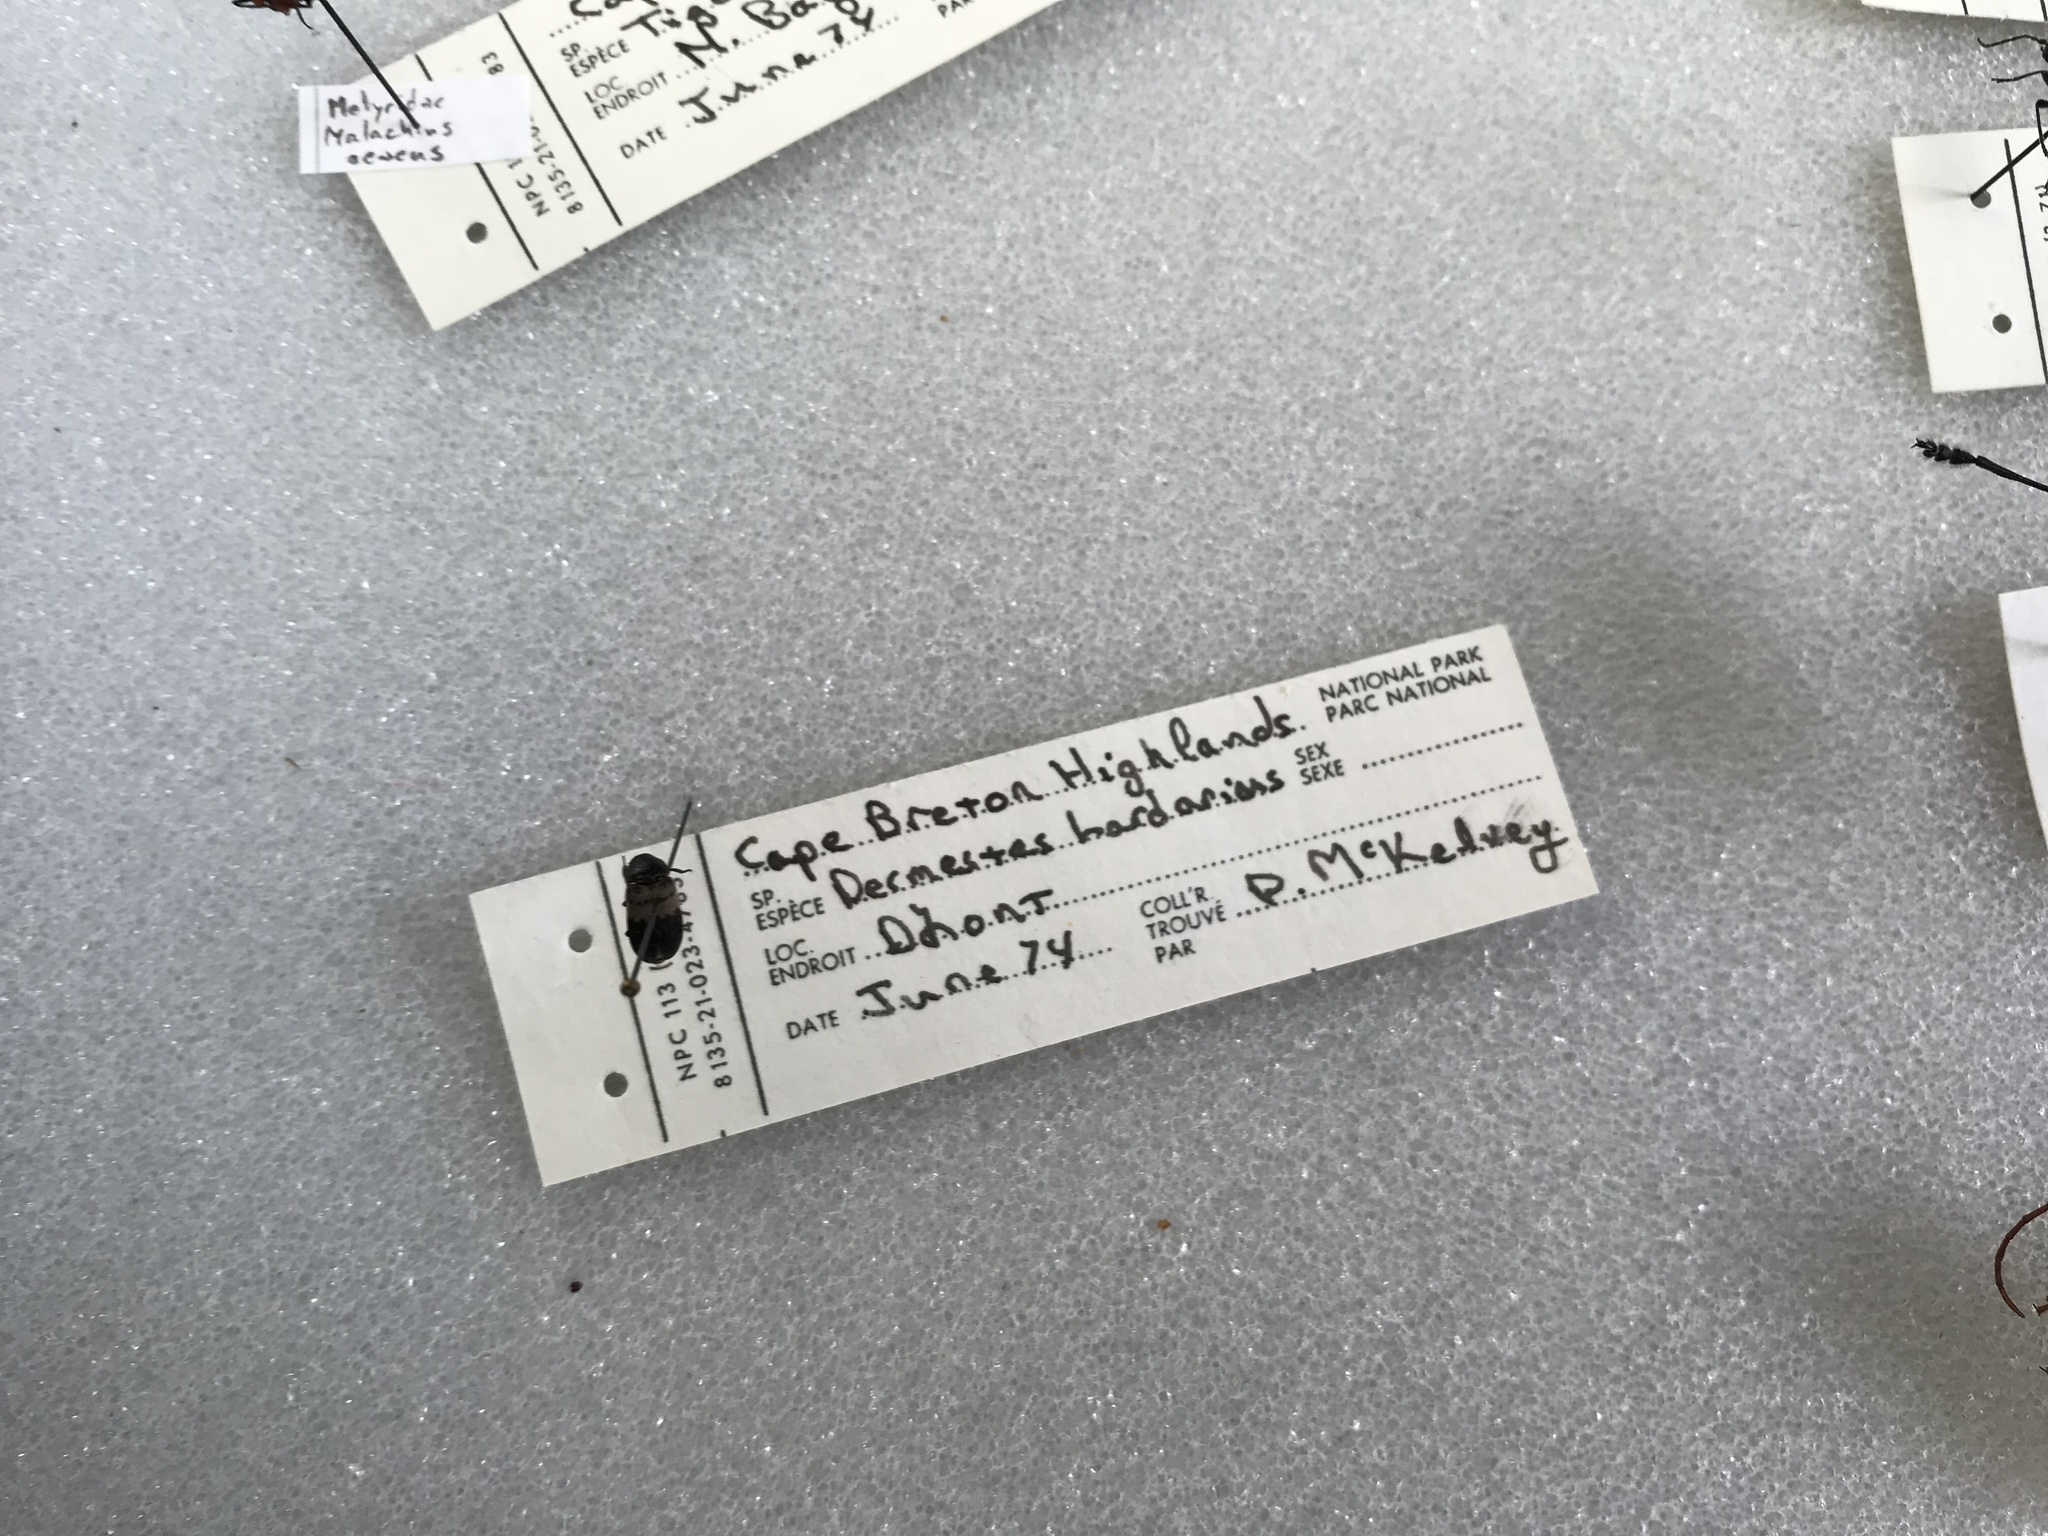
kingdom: Animalia
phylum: Arthropoda
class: Insecta
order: Coleoptera
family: Dermestidae
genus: Dermestes
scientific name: Dermestes lardarius
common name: Larder beetle
